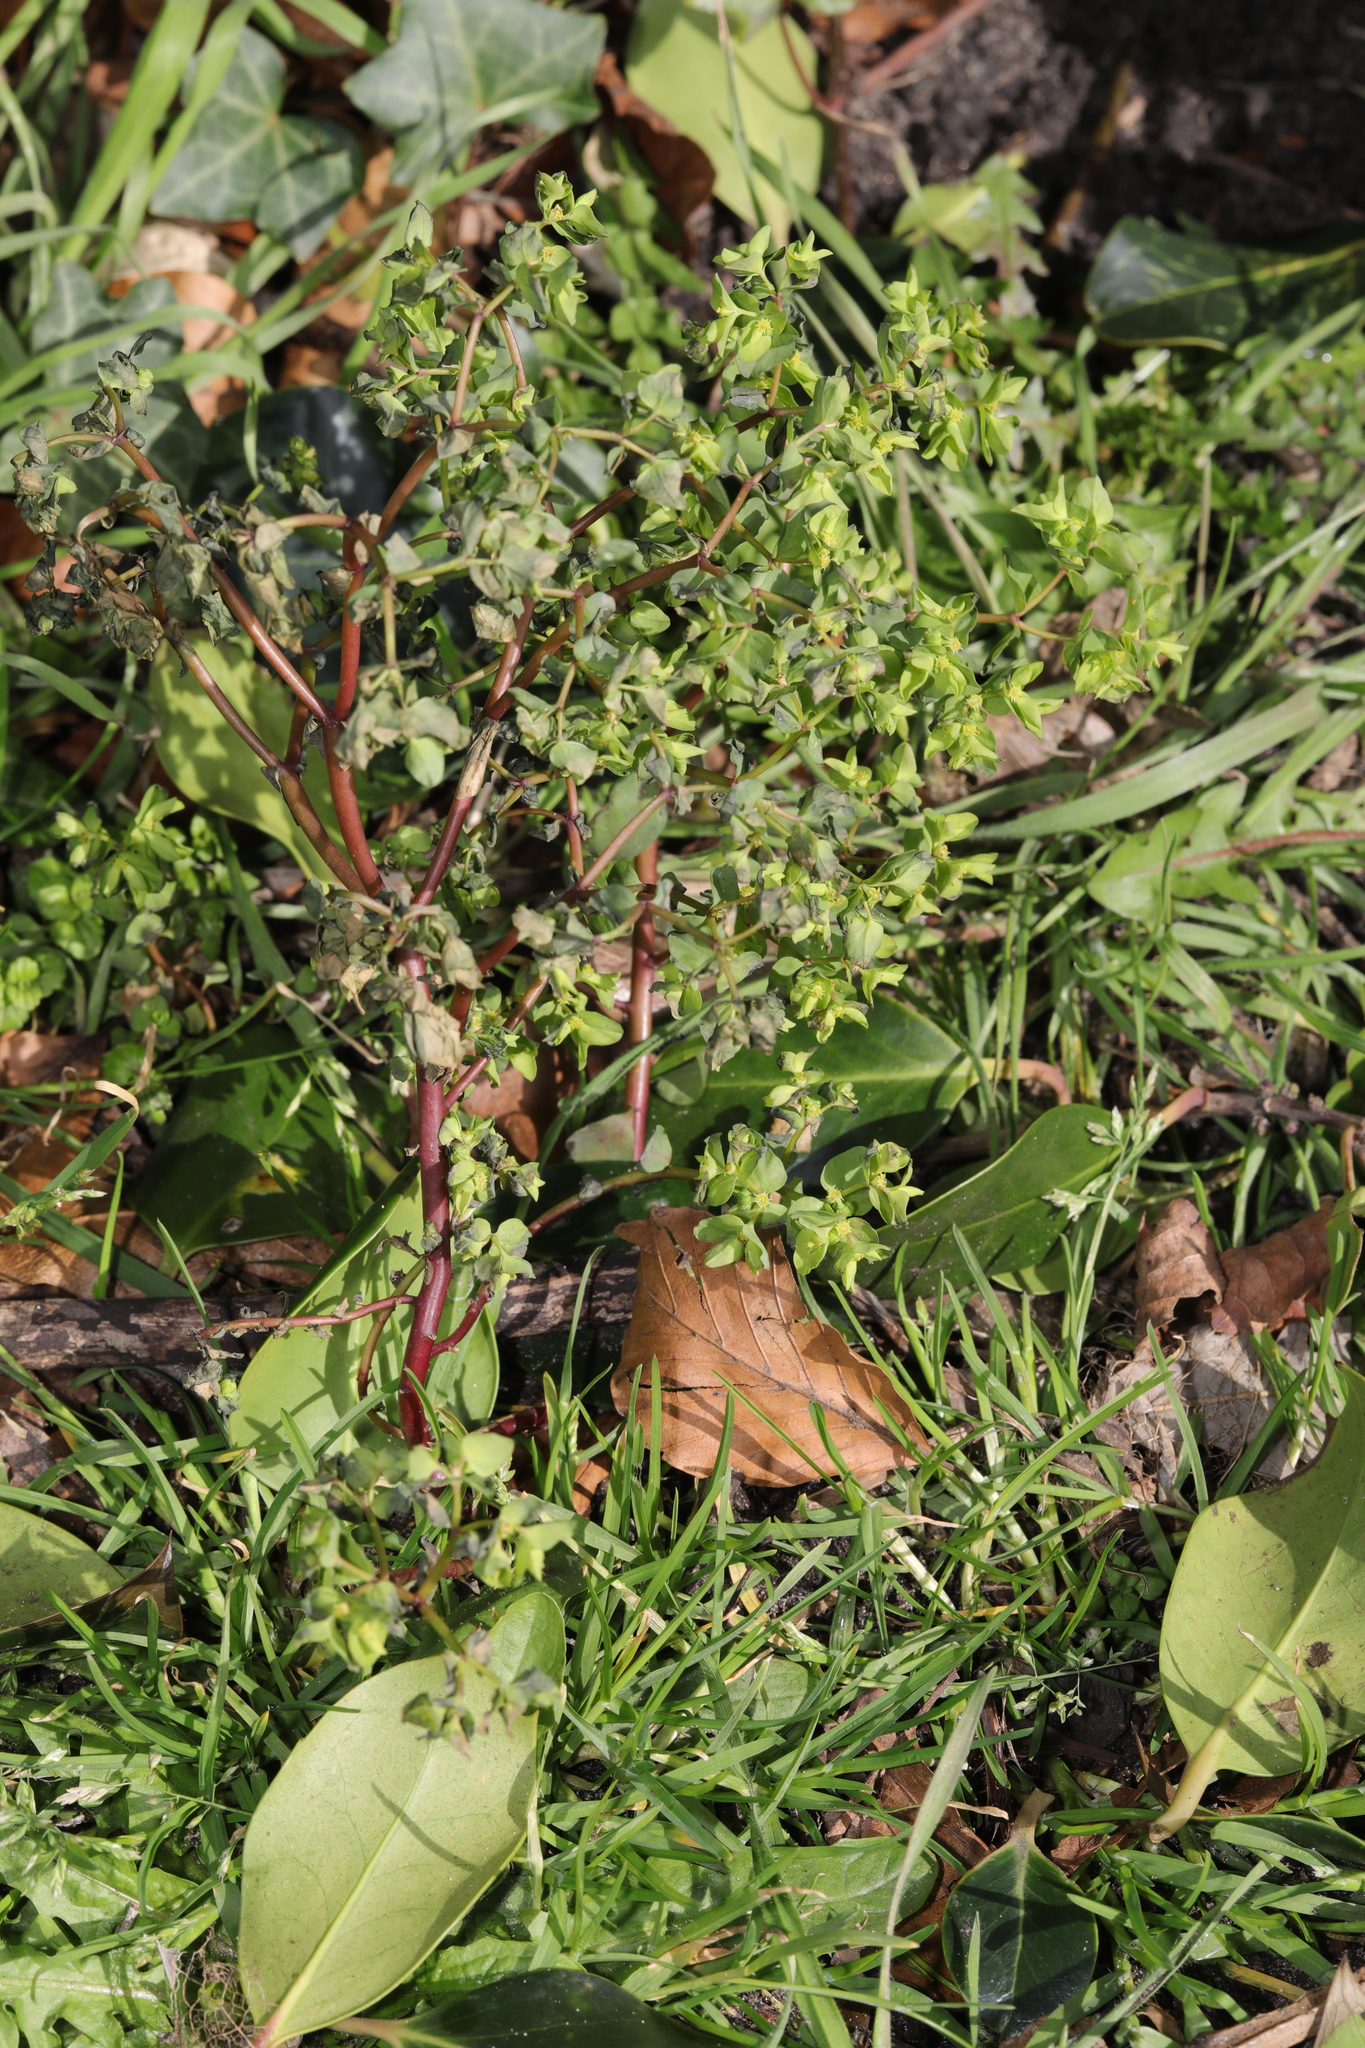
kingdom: Plantae
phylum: Tracheophyta
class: Magnoliopsida
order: Malpighiales
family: Euphorbiaceae
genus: Euphorbia
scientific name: Euphorbia peplus
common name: Petty spurge
